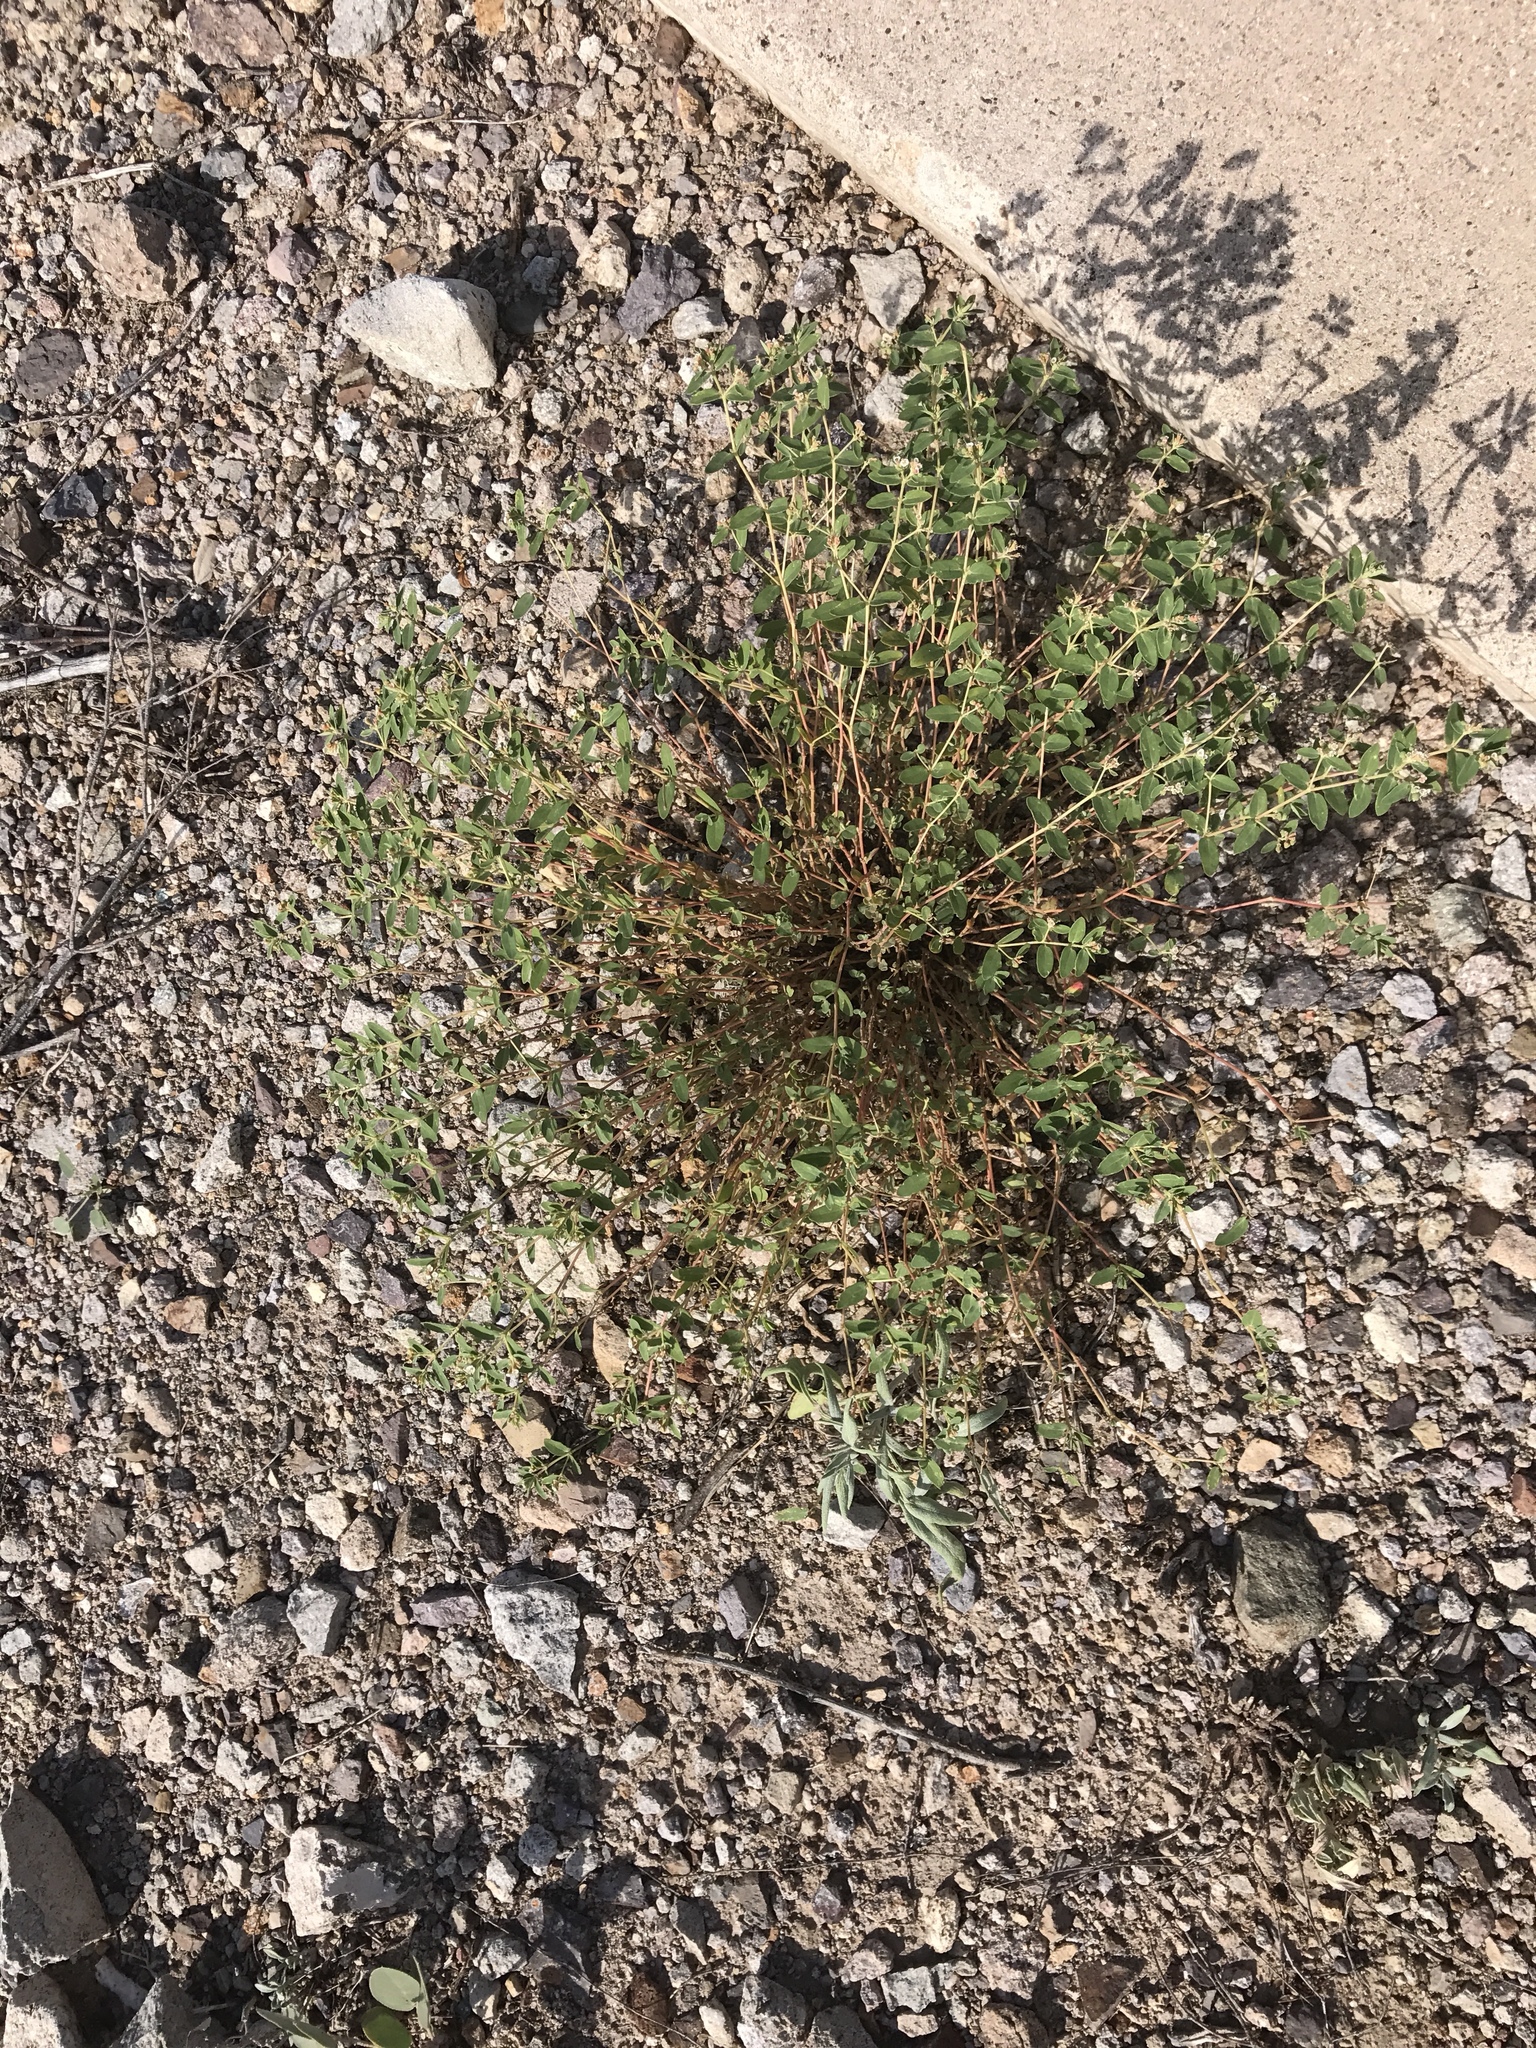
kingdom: Plantae
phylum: Tracheophyta
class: Magnoliopsida
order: Malpighiales
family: Euphorbiaceae
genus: Euphorbia
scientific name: Euphorbia capitellata
